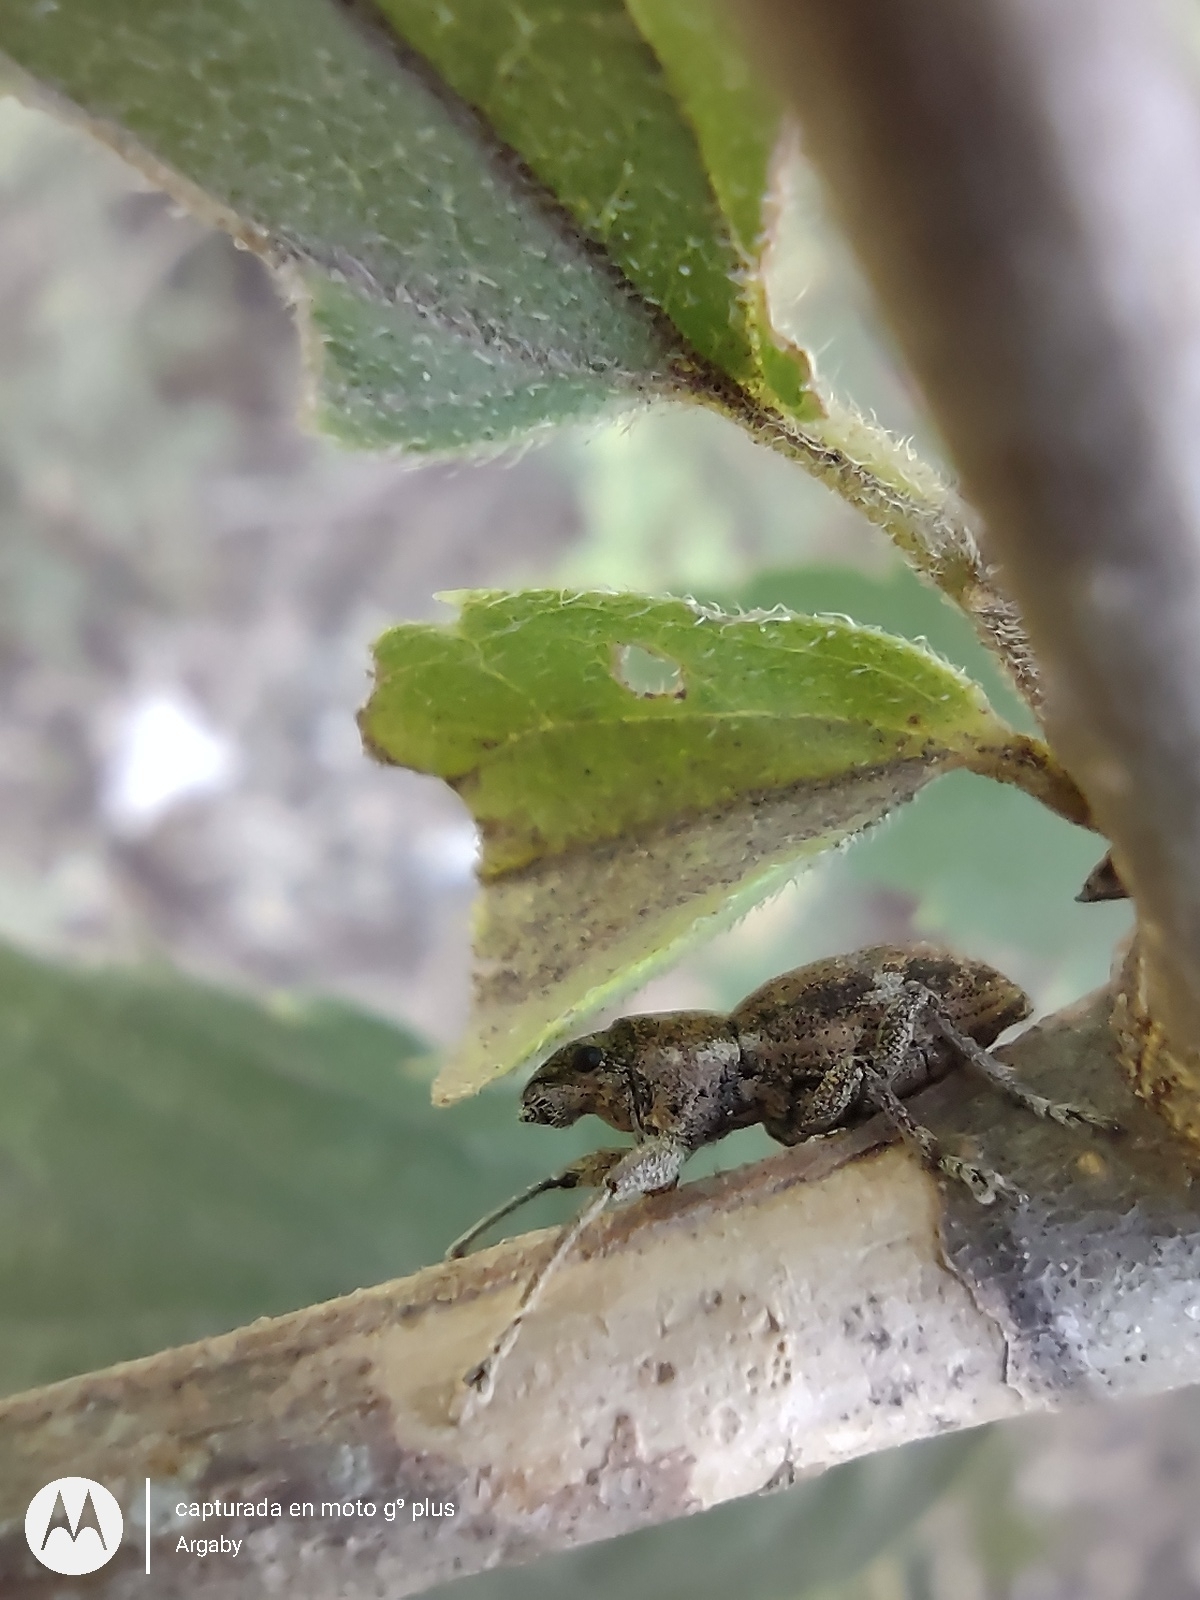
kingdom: Animalia
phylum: Arthropoda
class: Insecta
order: Coleoptera
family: Curculionidae
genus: Naupactus
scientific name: Naupactus cervinus
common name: Fuller rose beetle
